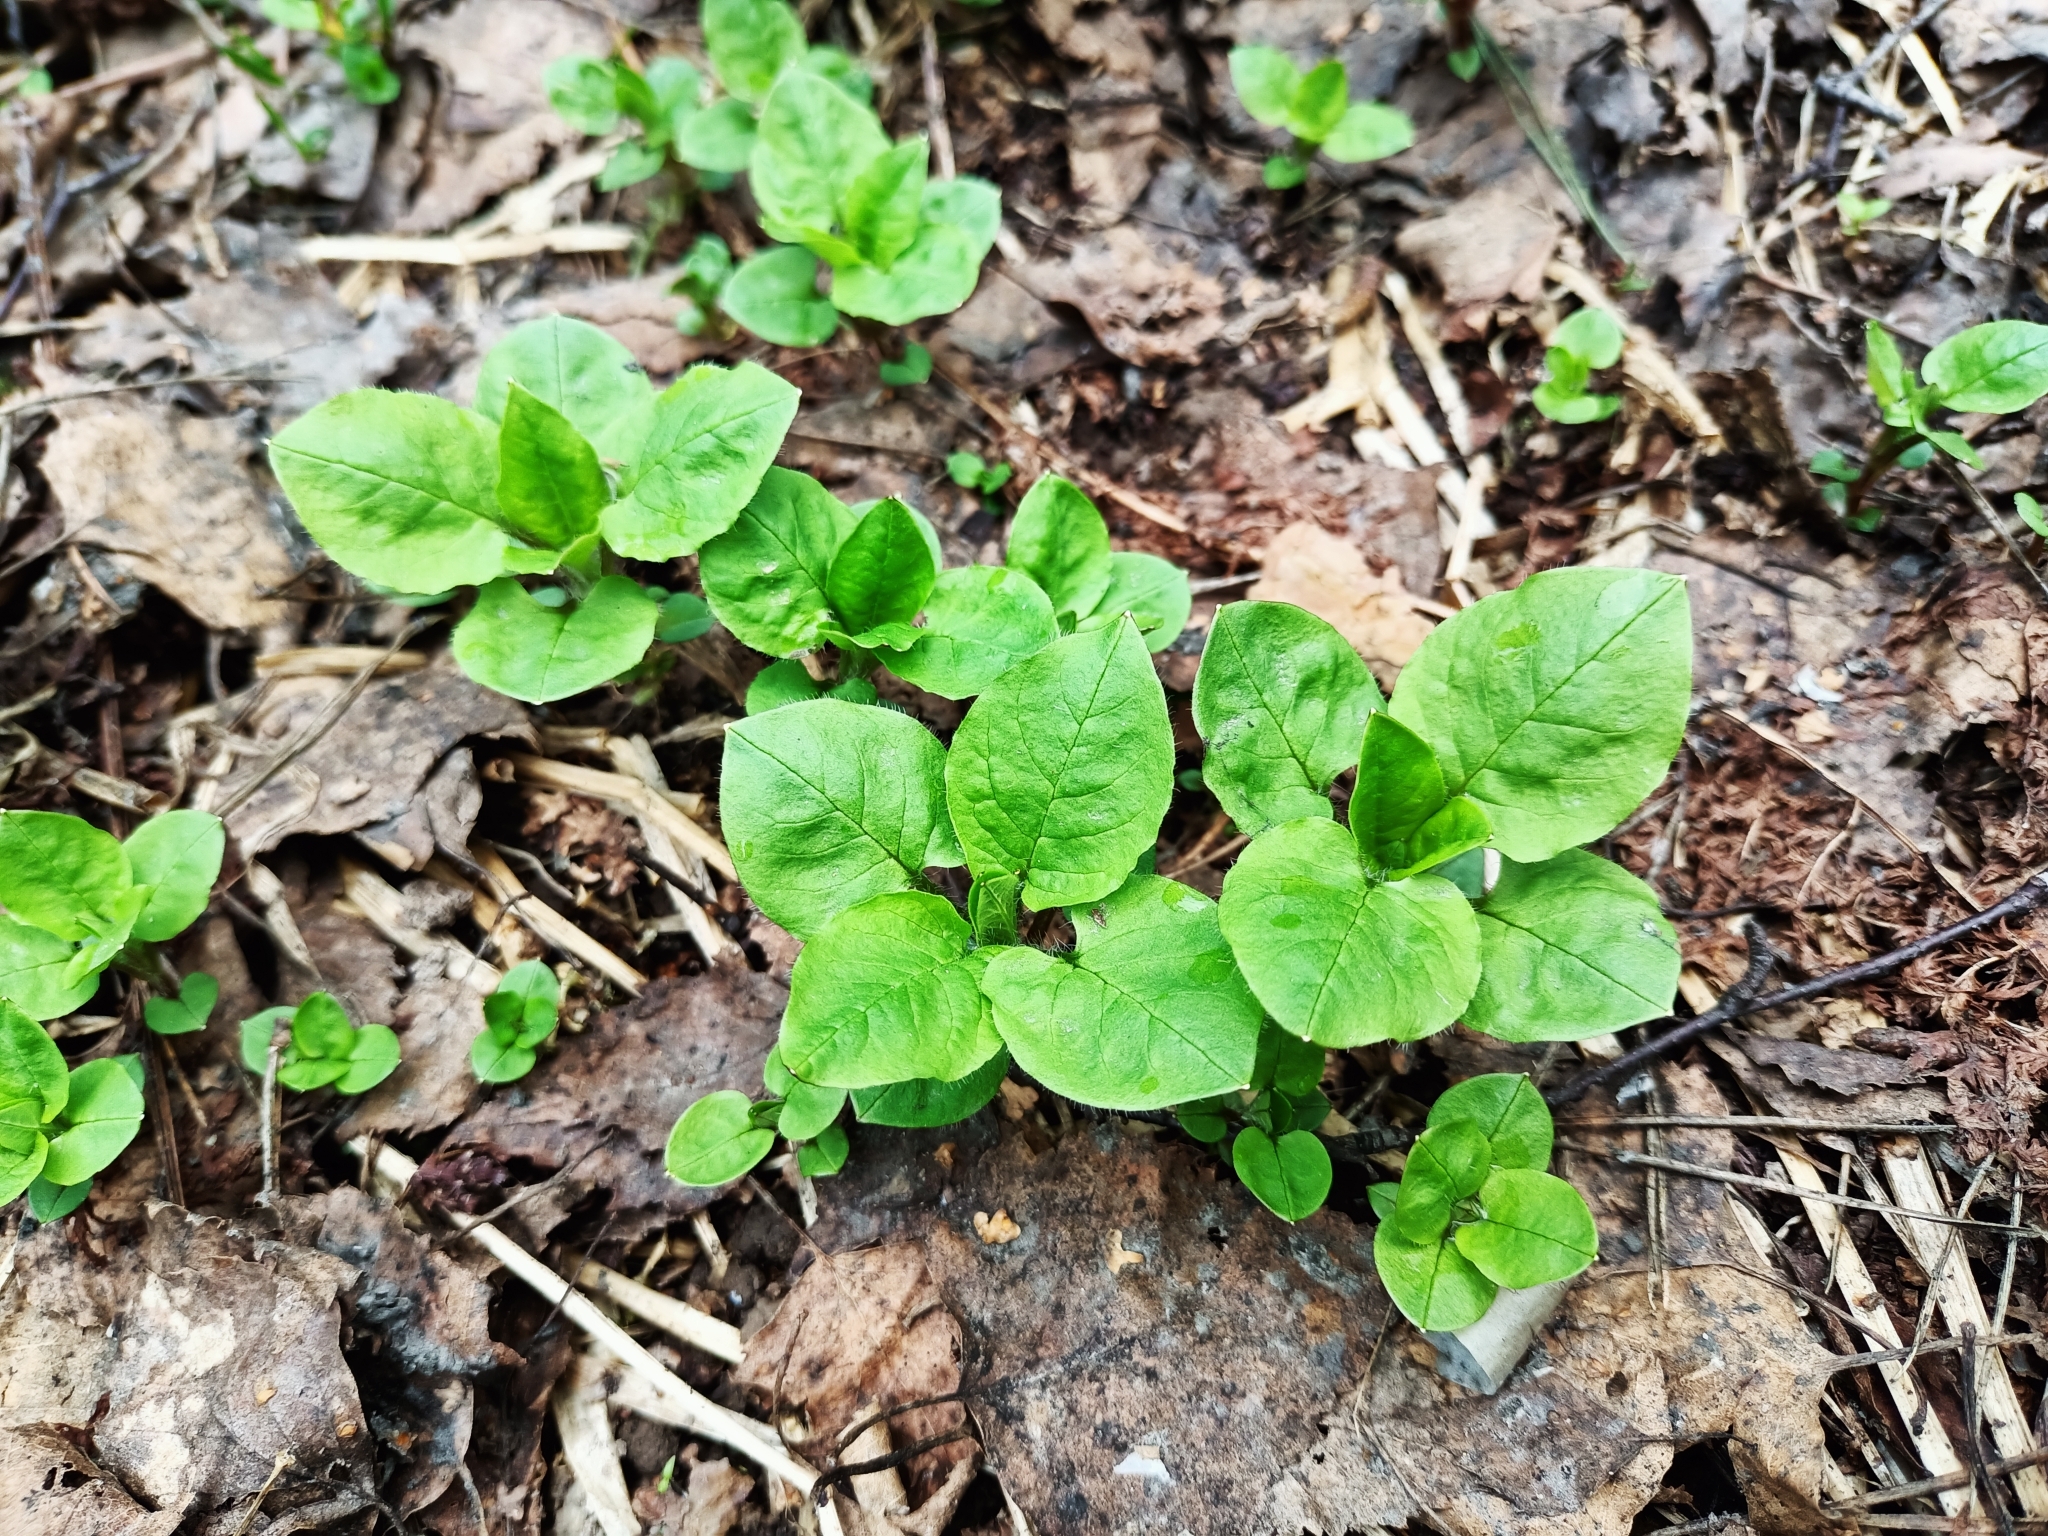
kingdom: Plantae
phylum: Tracheophyta
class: Magnoliopsida
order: Caryophyllales
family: Caryophyllaceae
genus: Stellaria
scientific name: Stellaria nemorum
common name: Wood stitchwort
